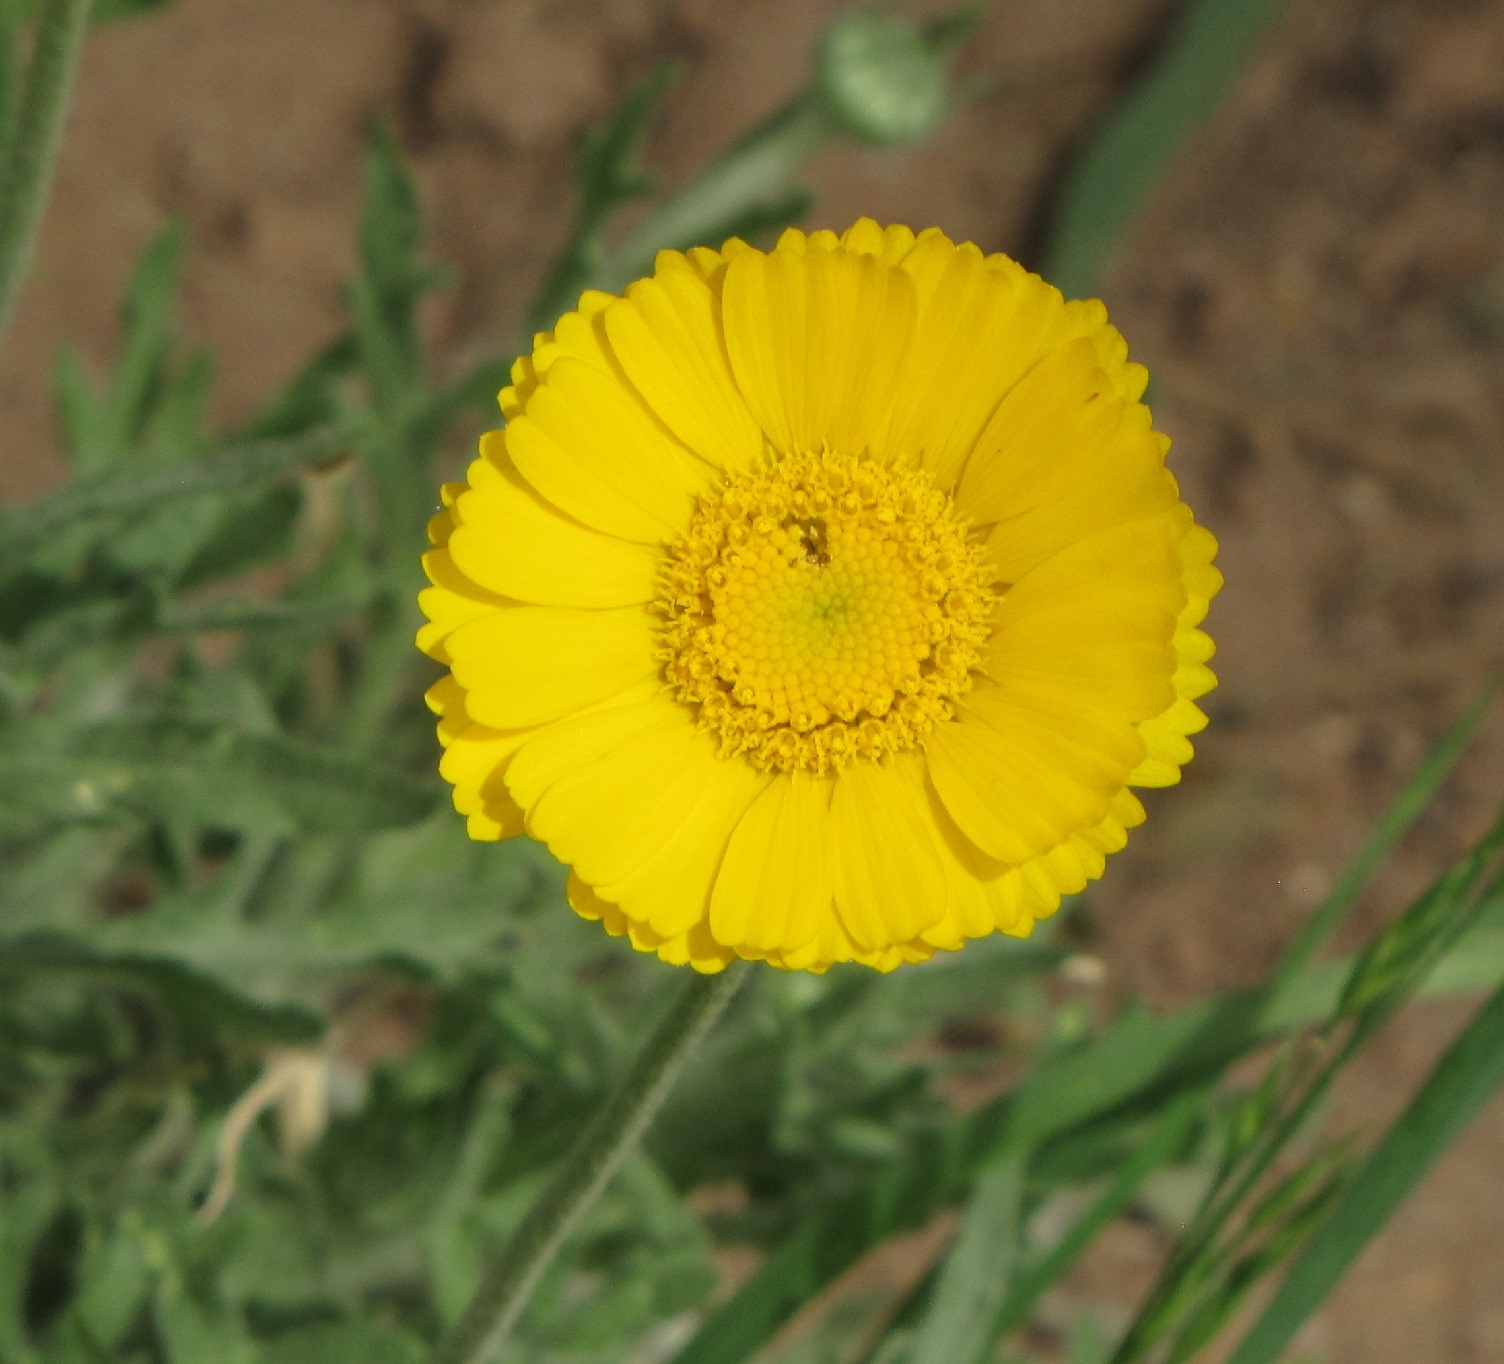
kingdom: Plantae
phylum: Tracheophyta
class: Magnoliopsida
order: Asterales
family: Asteraceae
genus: Baileya
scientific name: Baileya multiradiata
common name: Desert-marigold
